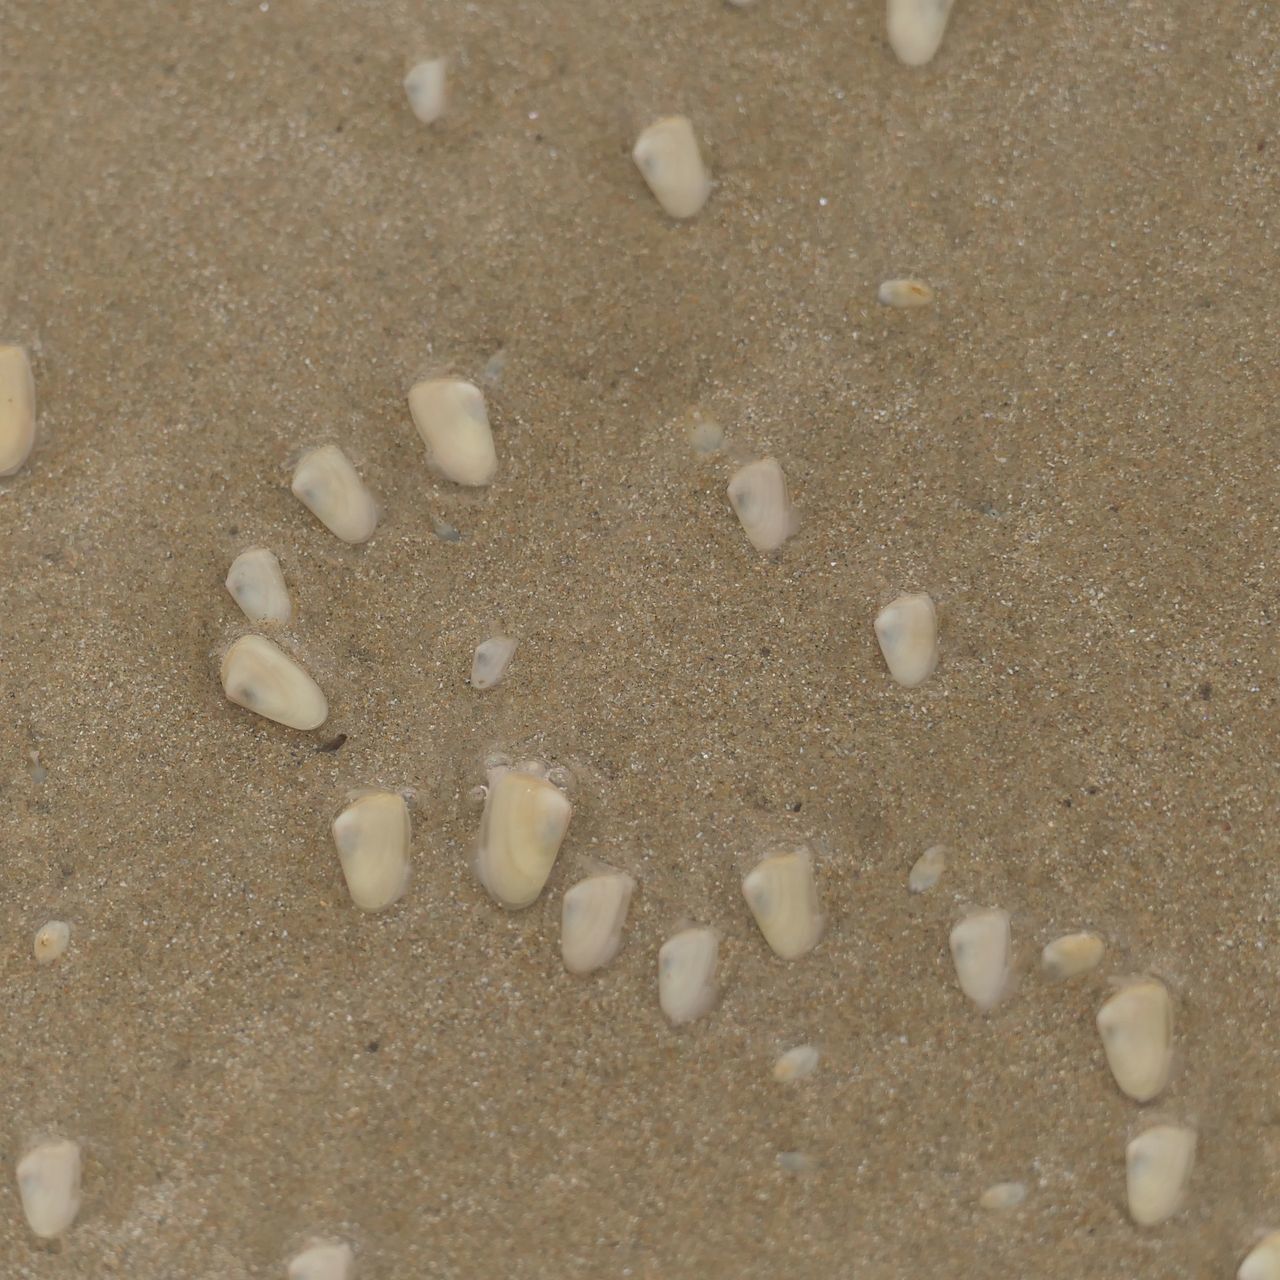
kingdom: Animalia
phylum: Mollusca
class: Bivalvia
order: Venerida
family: Mesodesmatidae
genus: Paphies
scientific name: Paphies angusta
